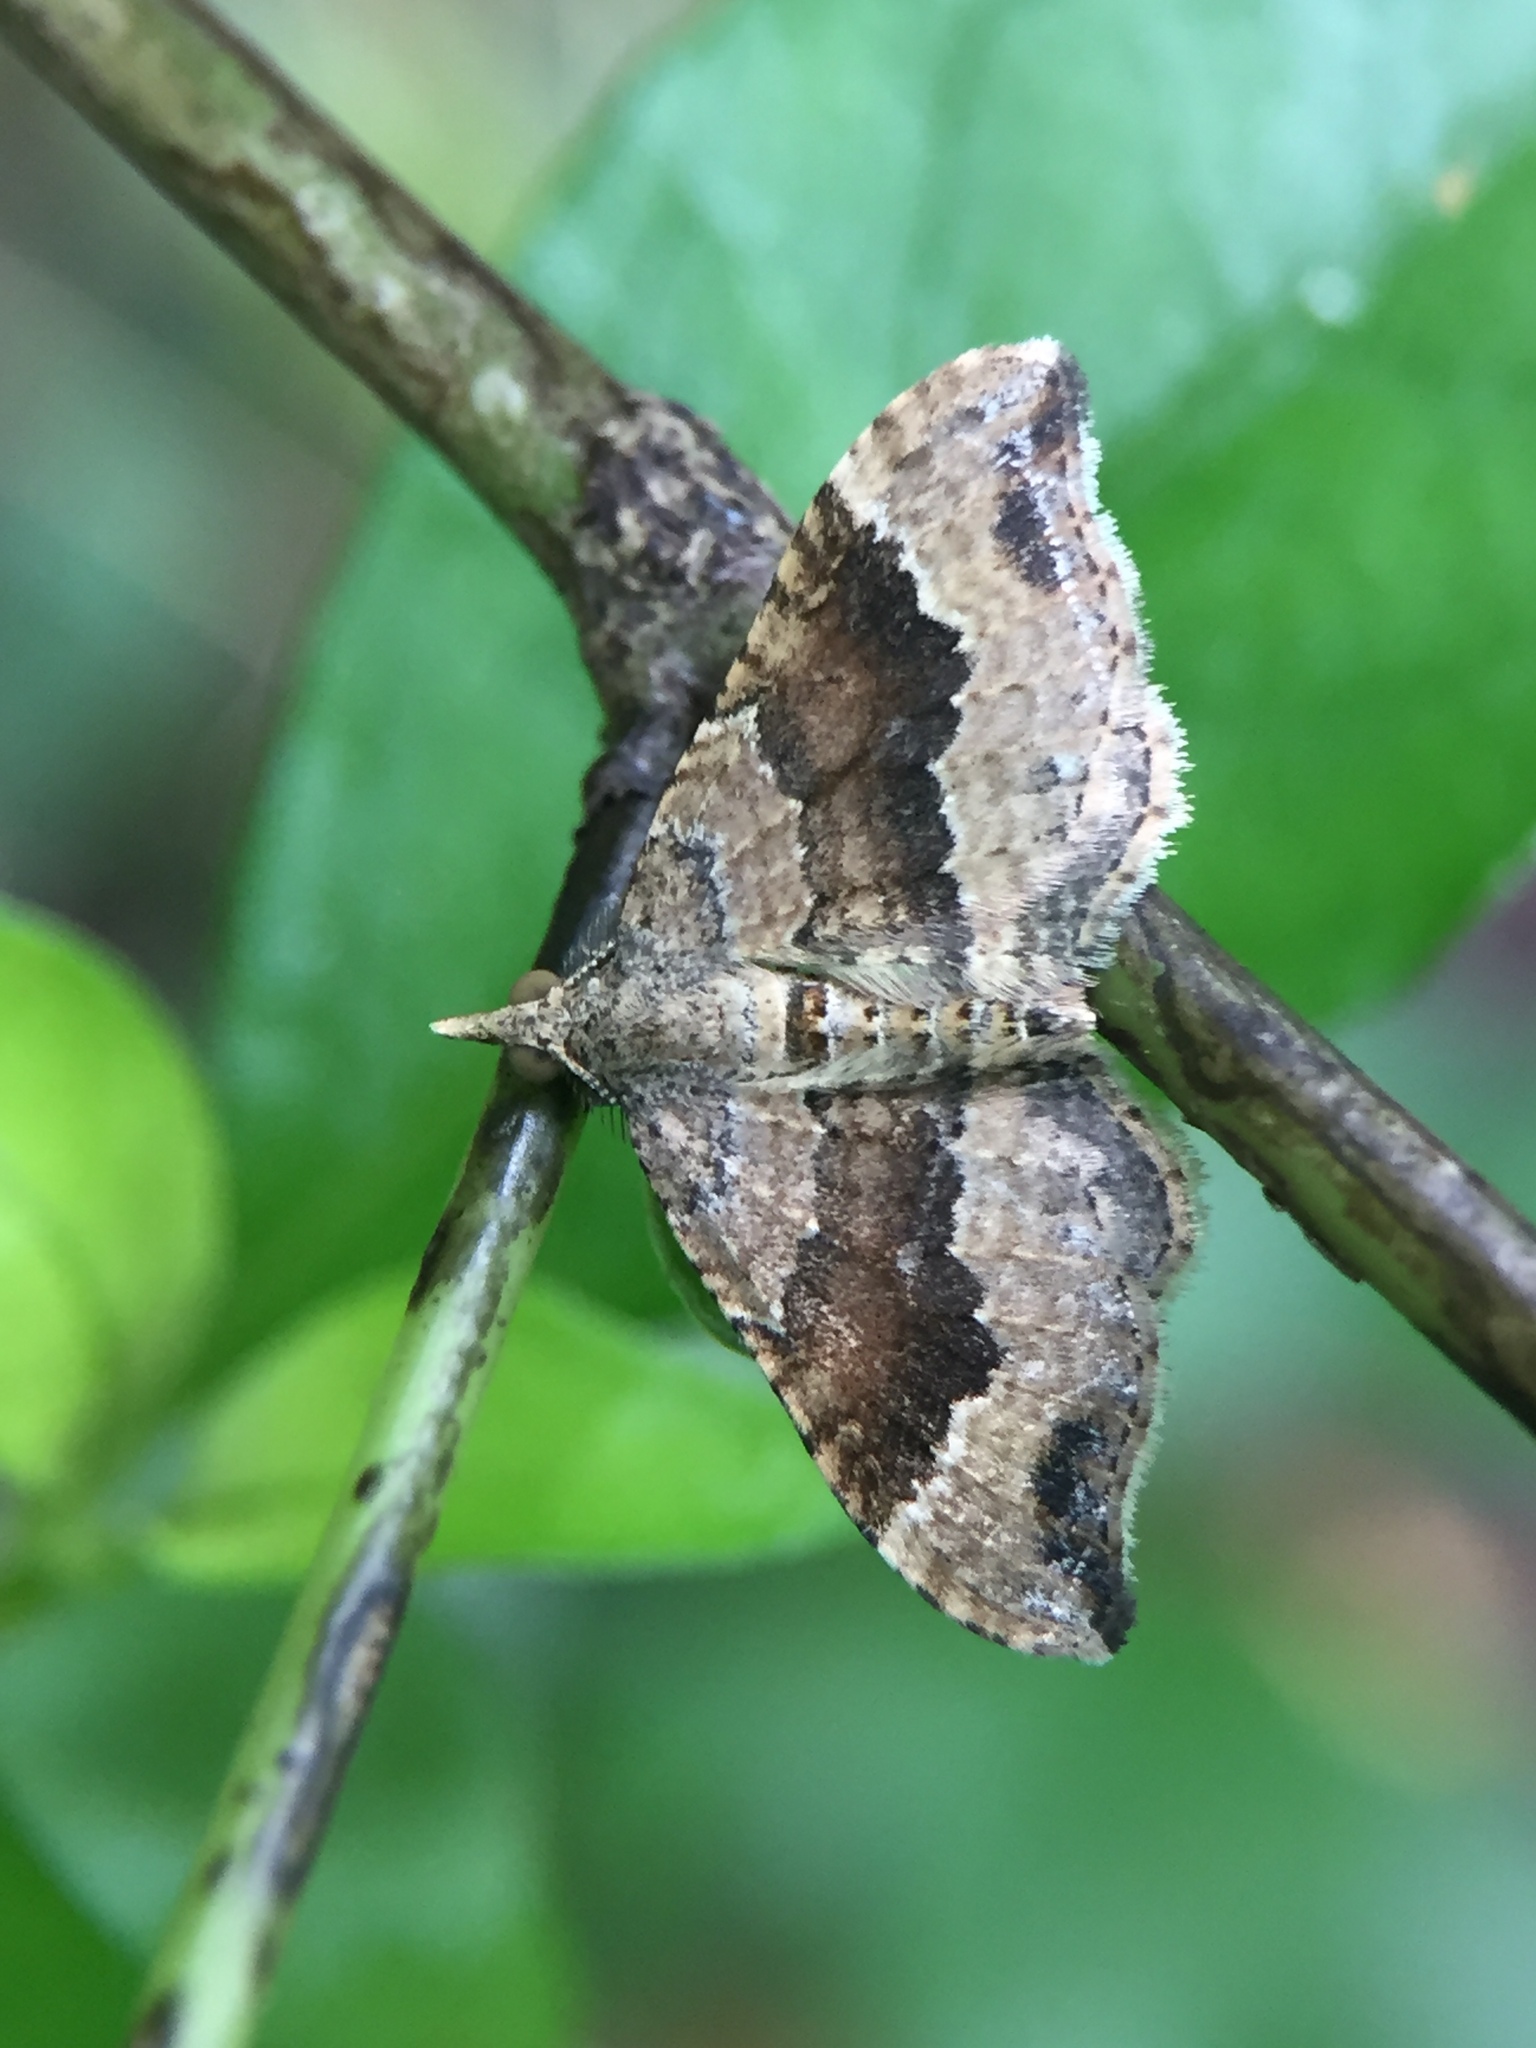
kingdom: Animalia
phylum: Arthropoda
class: Insecta
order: Lepidoptera
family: Geometridae
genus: Homodotis
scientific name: Homodotis megaspilata
